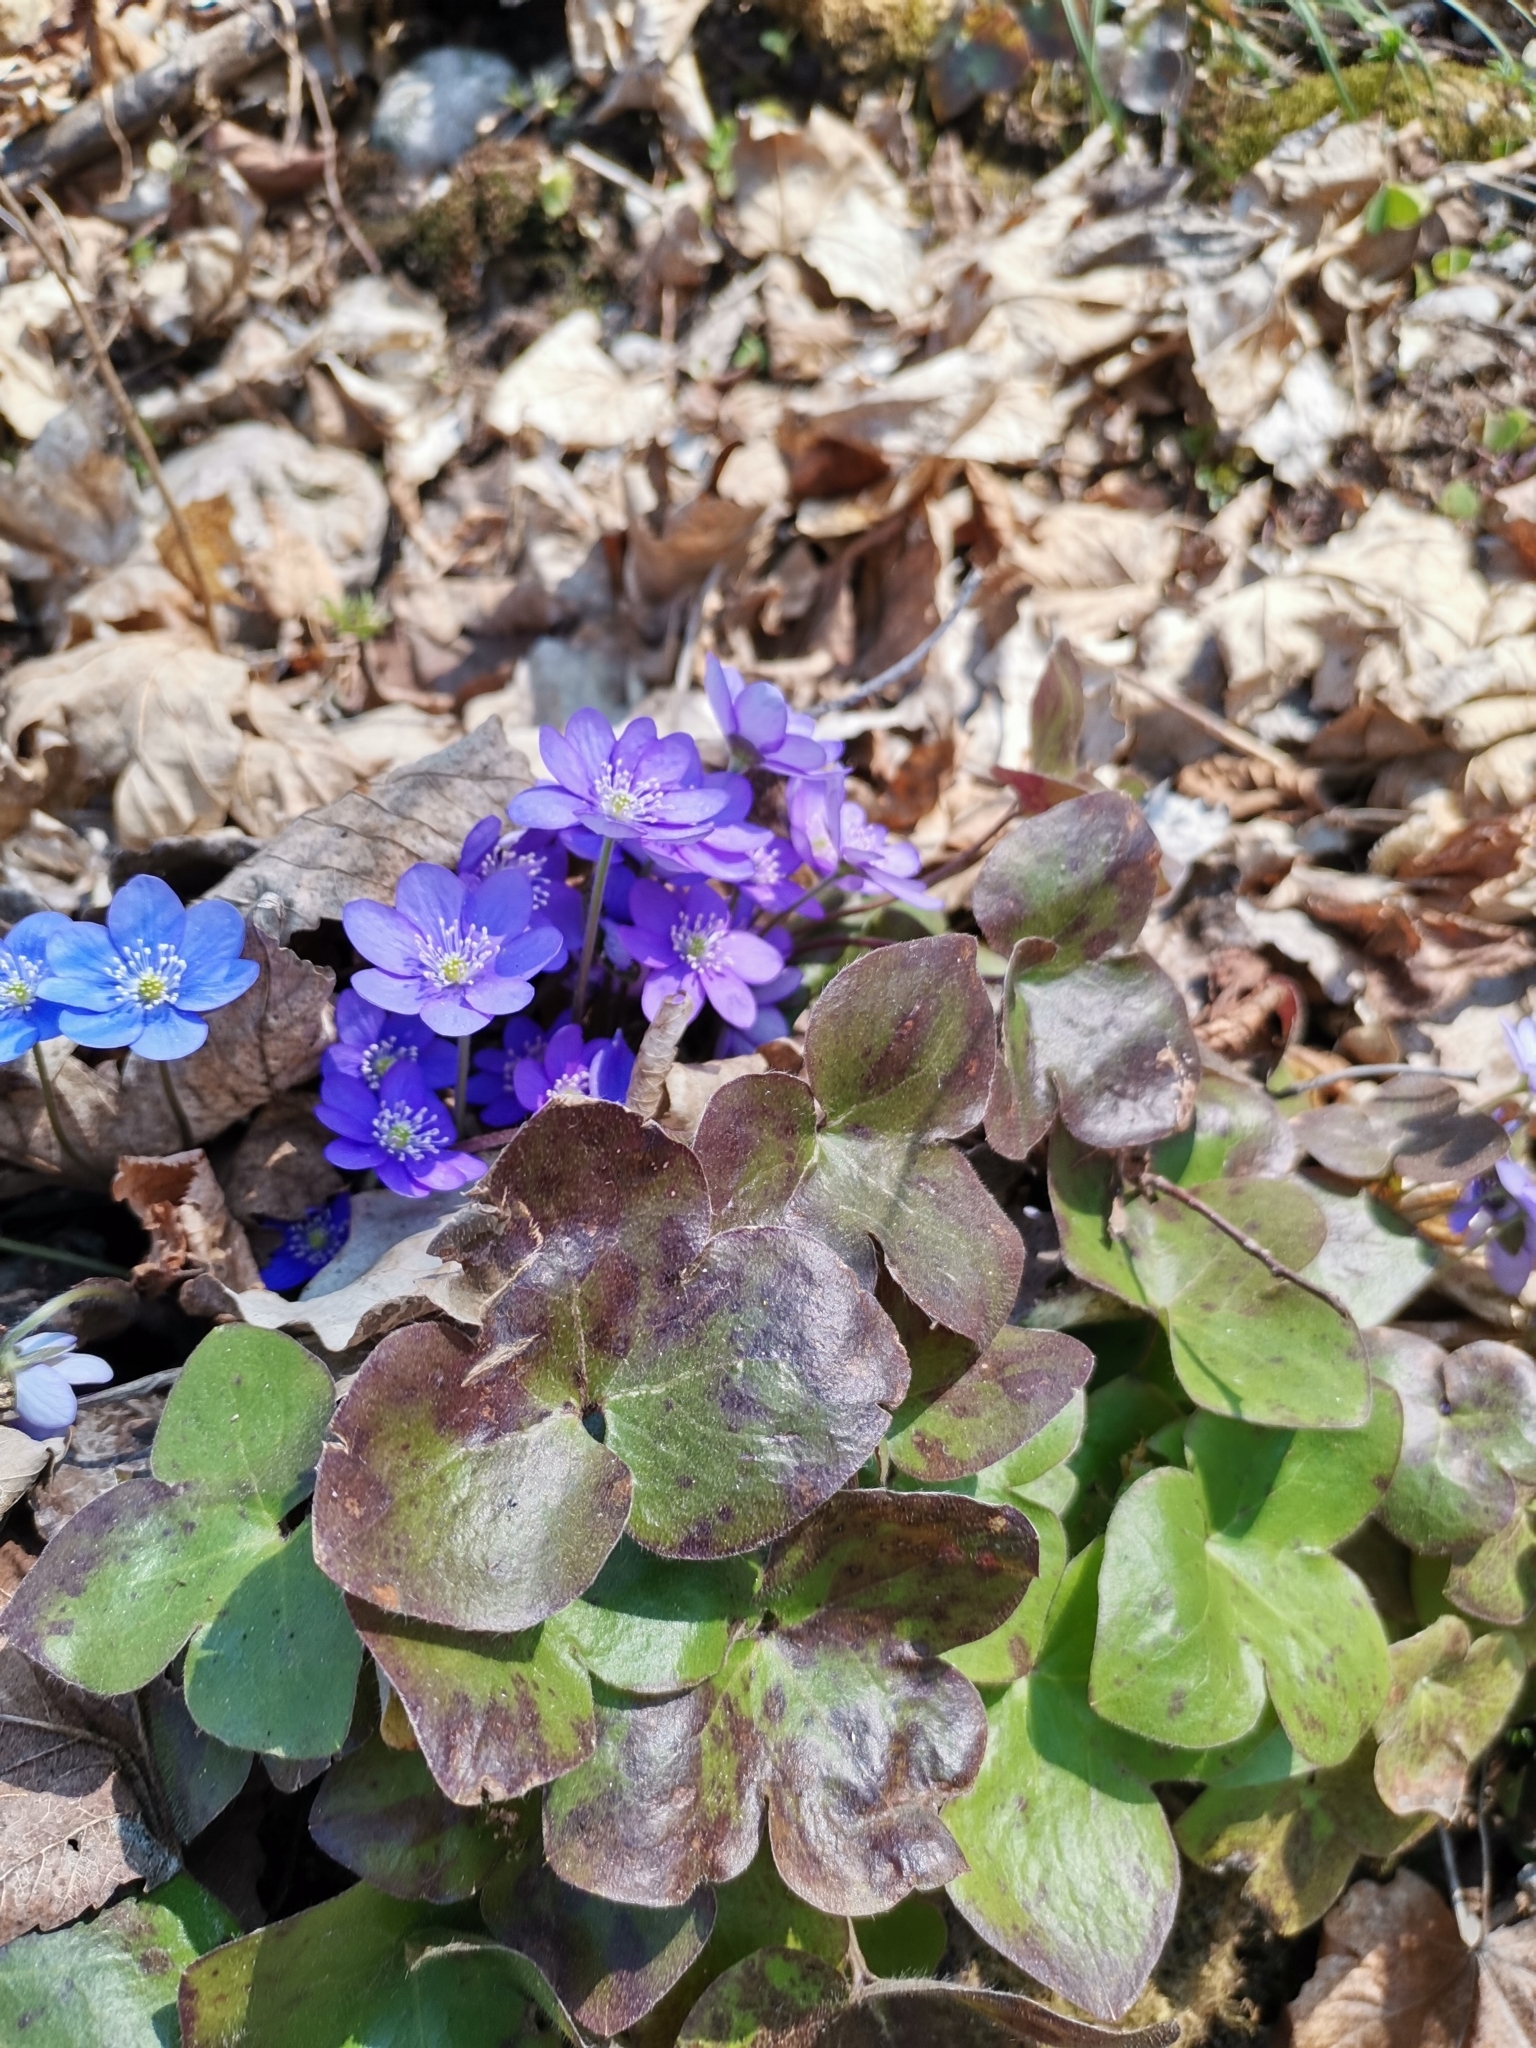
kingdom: Plantae
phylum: Tracheophyta
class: Magnoliopsida
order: Ranunculales
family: Ranunculaceae
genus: Hepatica
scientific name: Hepatica nobilis
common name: Liverleaf
